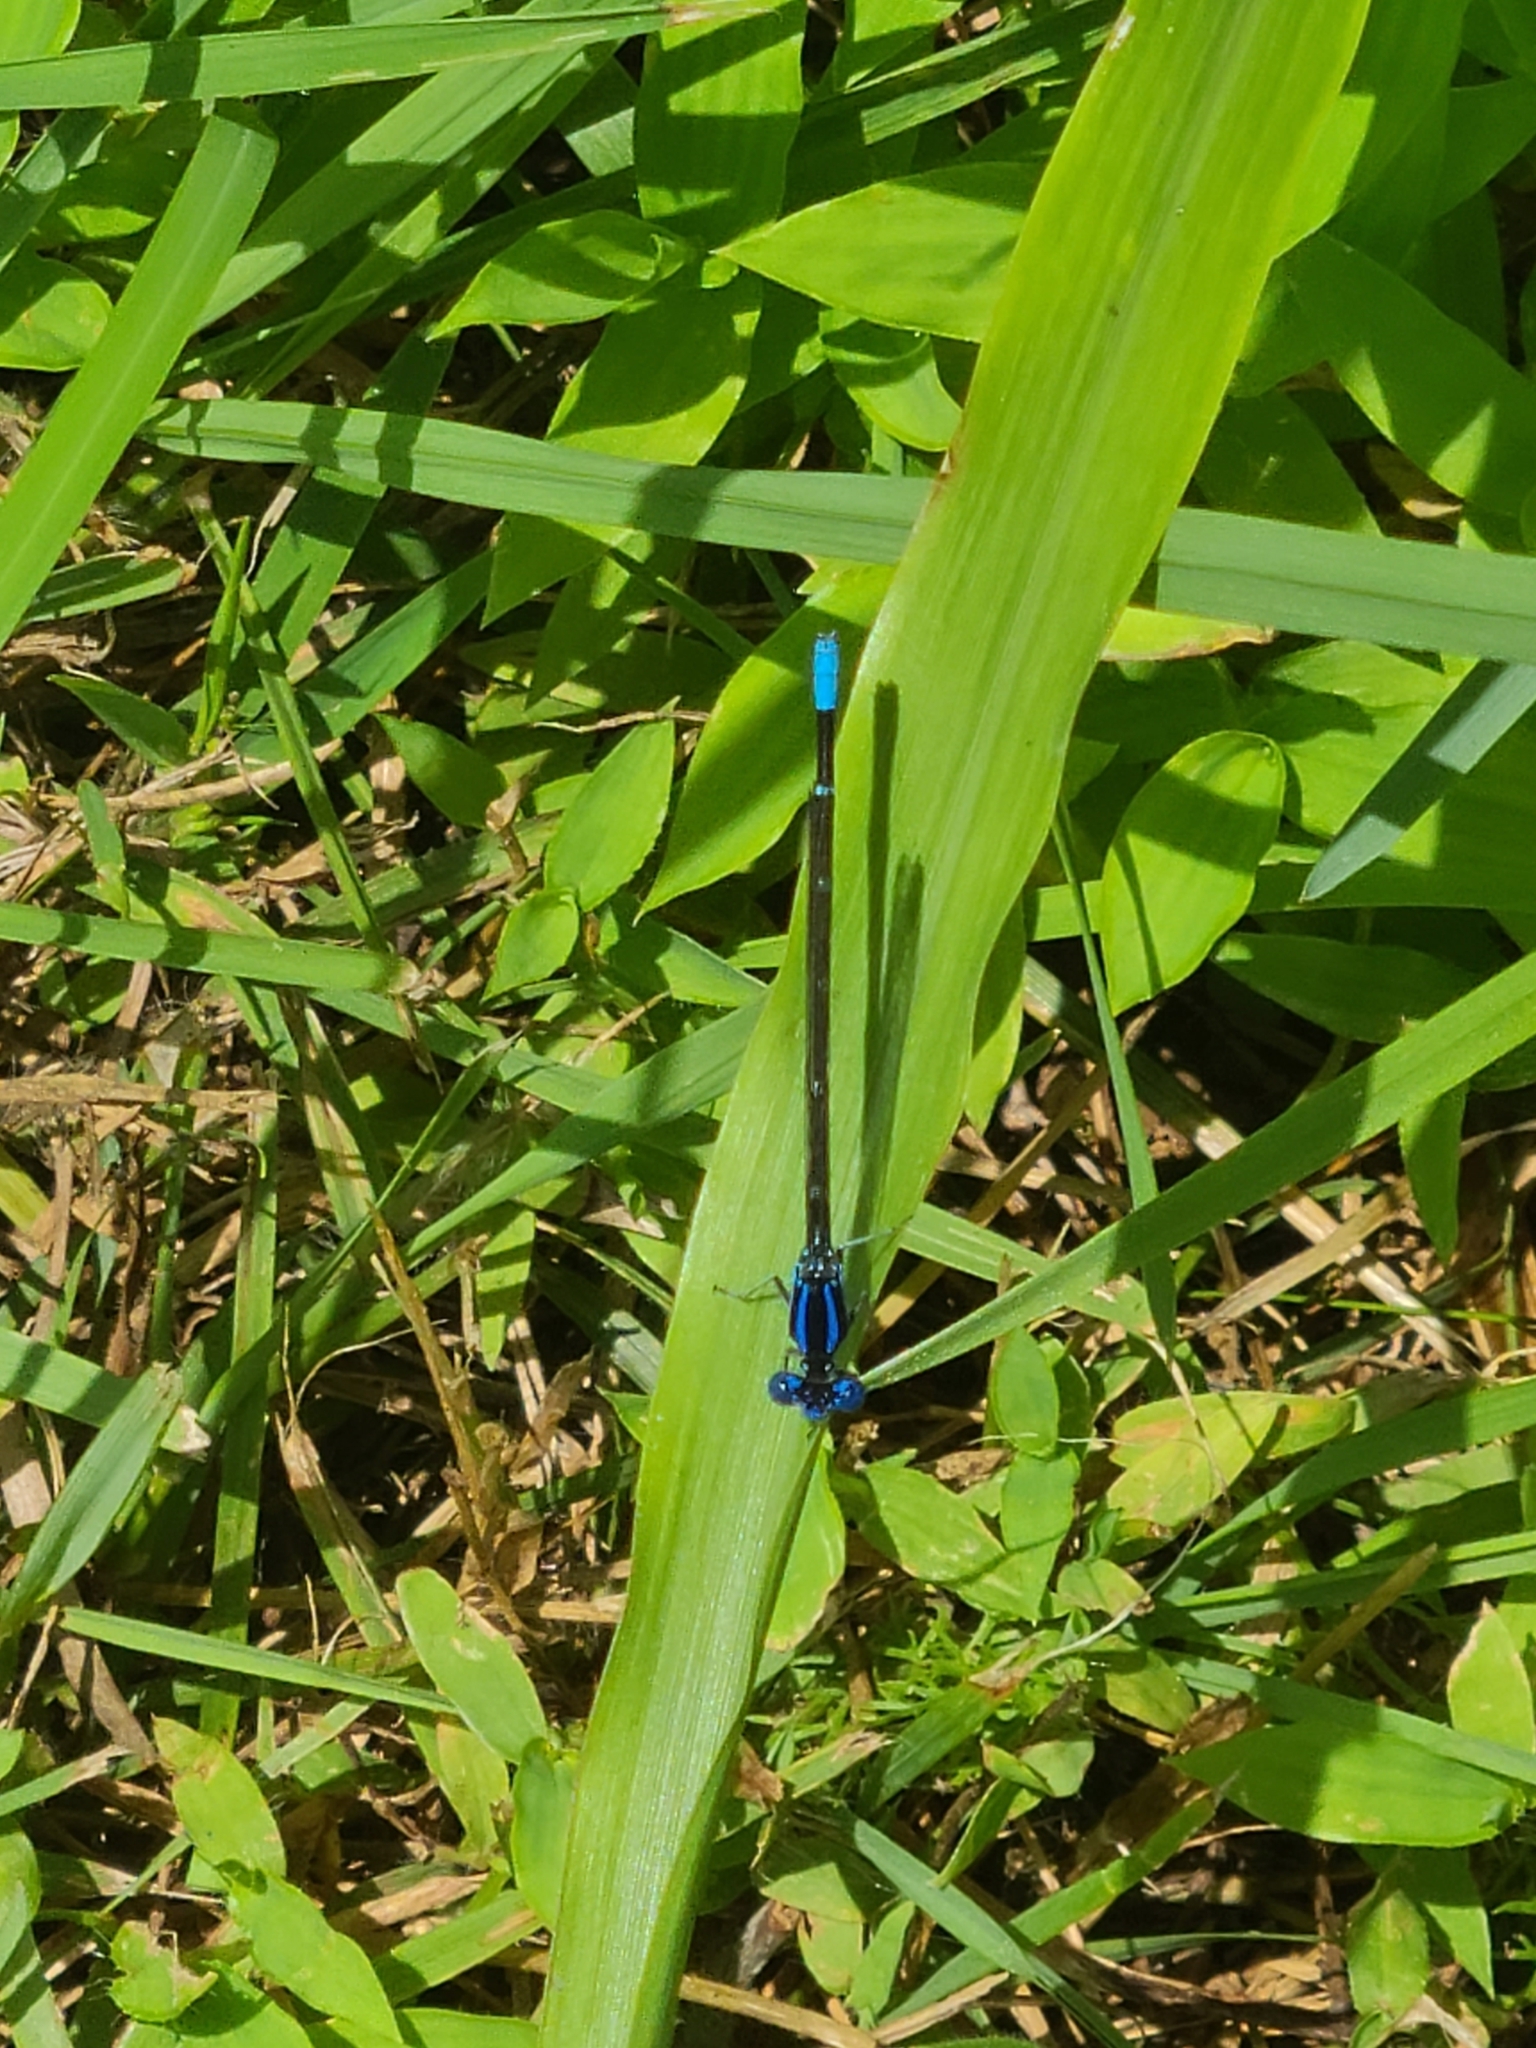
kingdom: Animalia
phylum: Arthropoda
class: Insecta
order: Odonata
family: Coenagrionidae
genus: Argia
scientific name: Argia sedula
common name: Blue-ringed dancer
